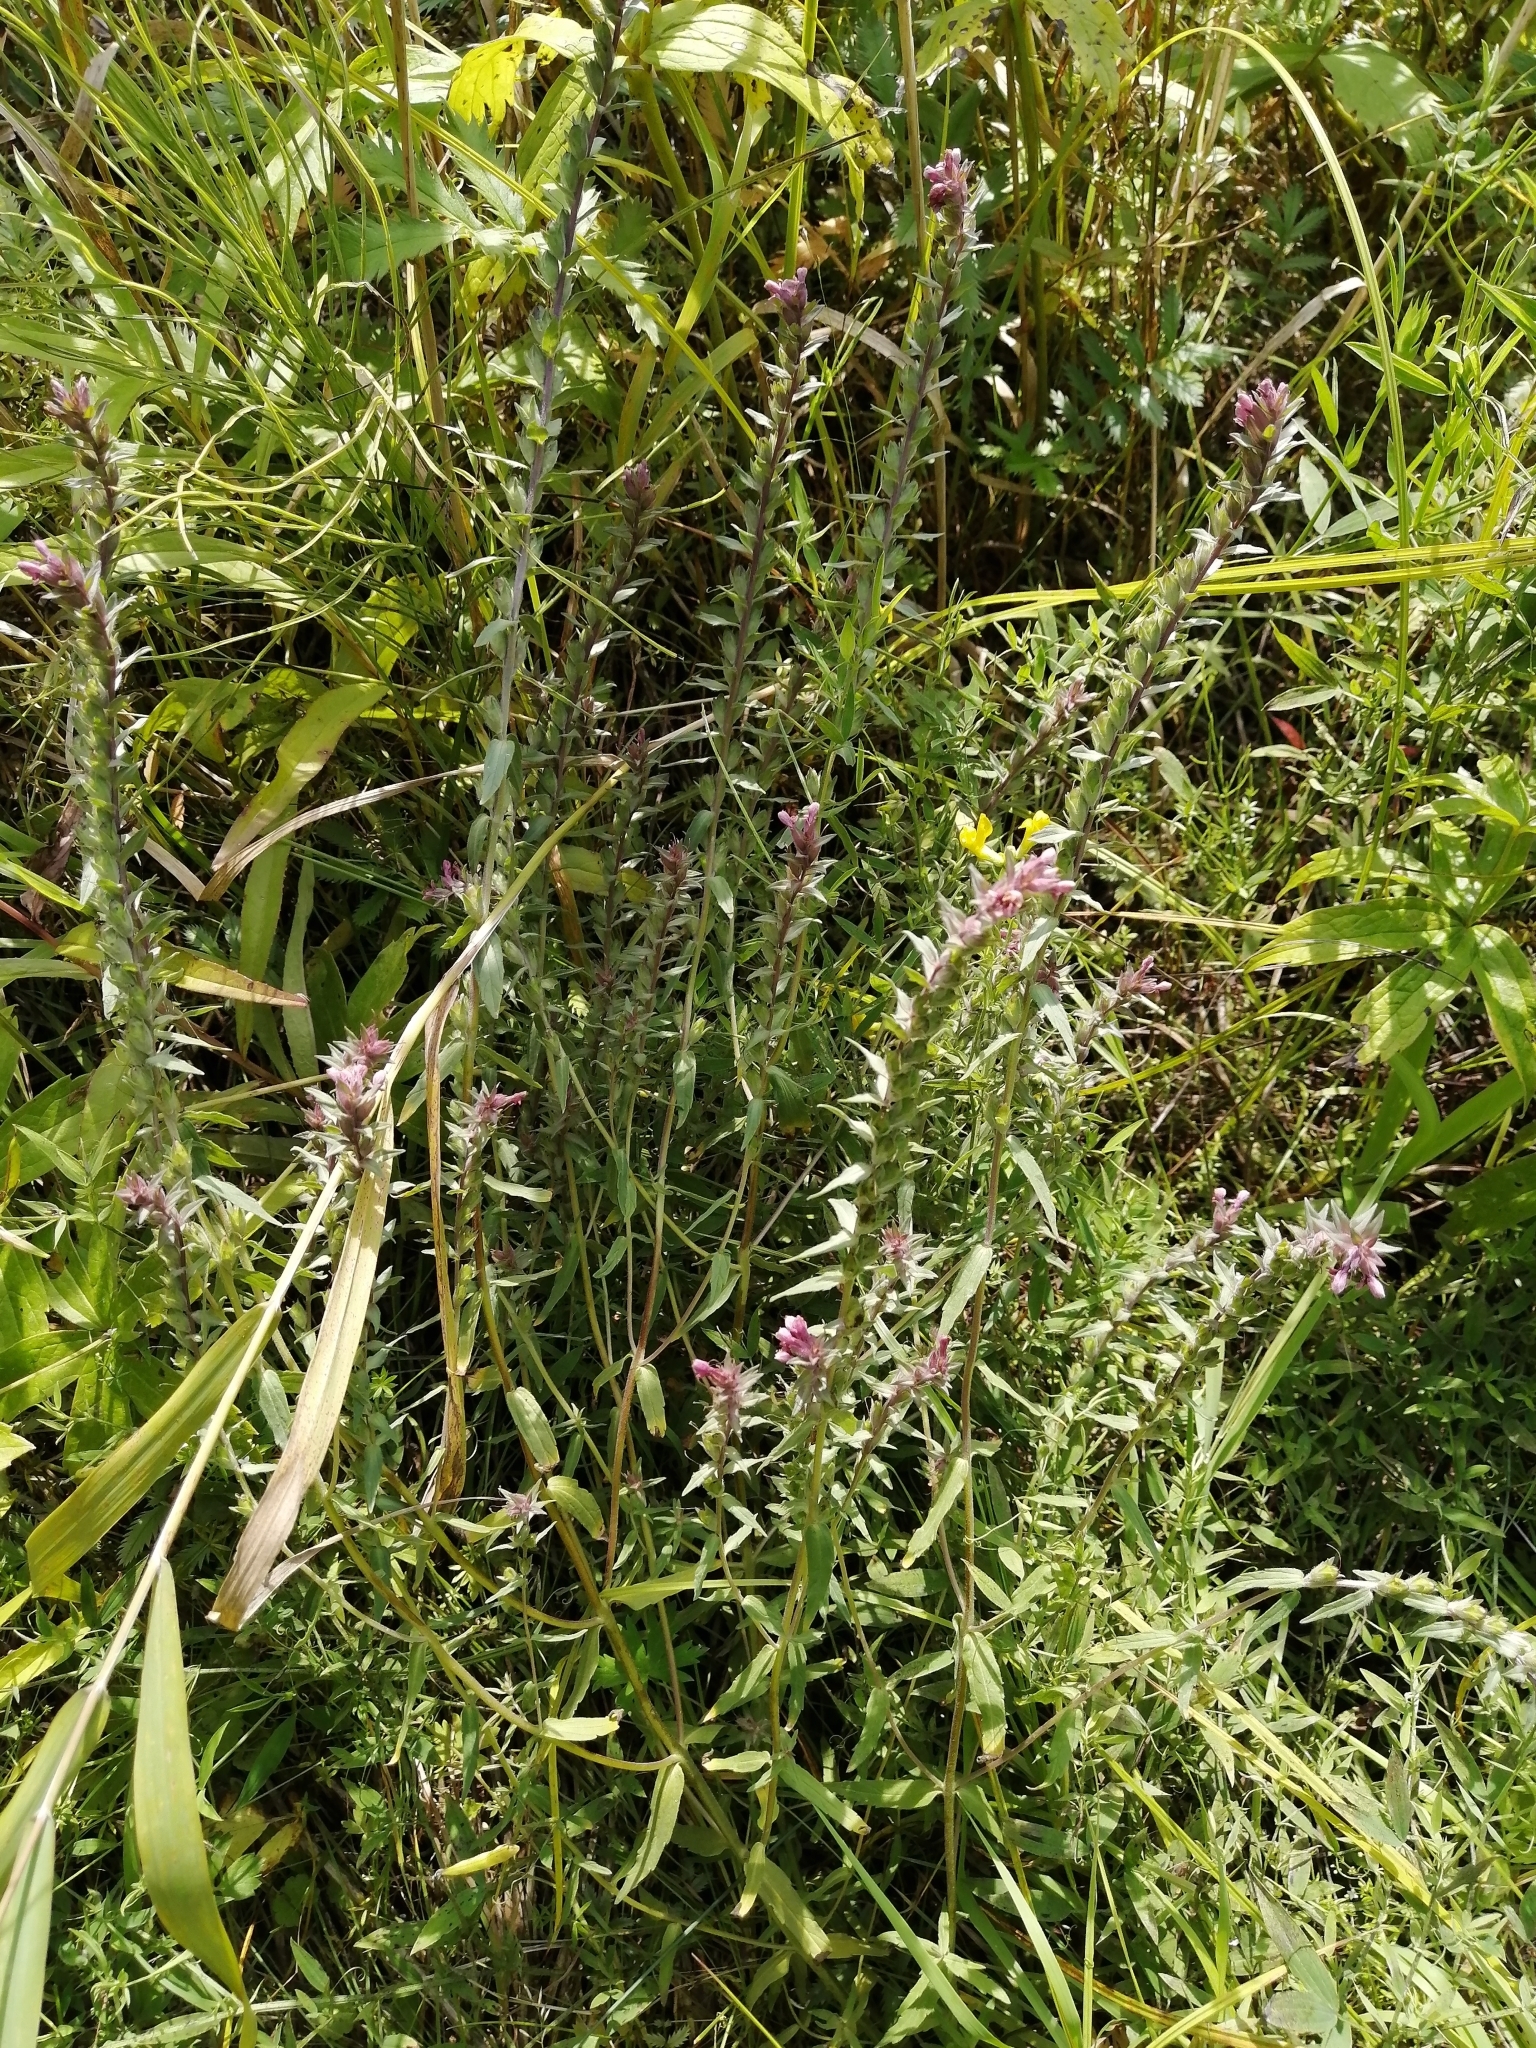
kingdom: Plantae
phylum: Tracheophyta
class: Magnoliopsida
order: Lamiales
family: Orobanchaceae
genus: Odontites
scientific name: Odontites vulgaris
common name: Broomrape
